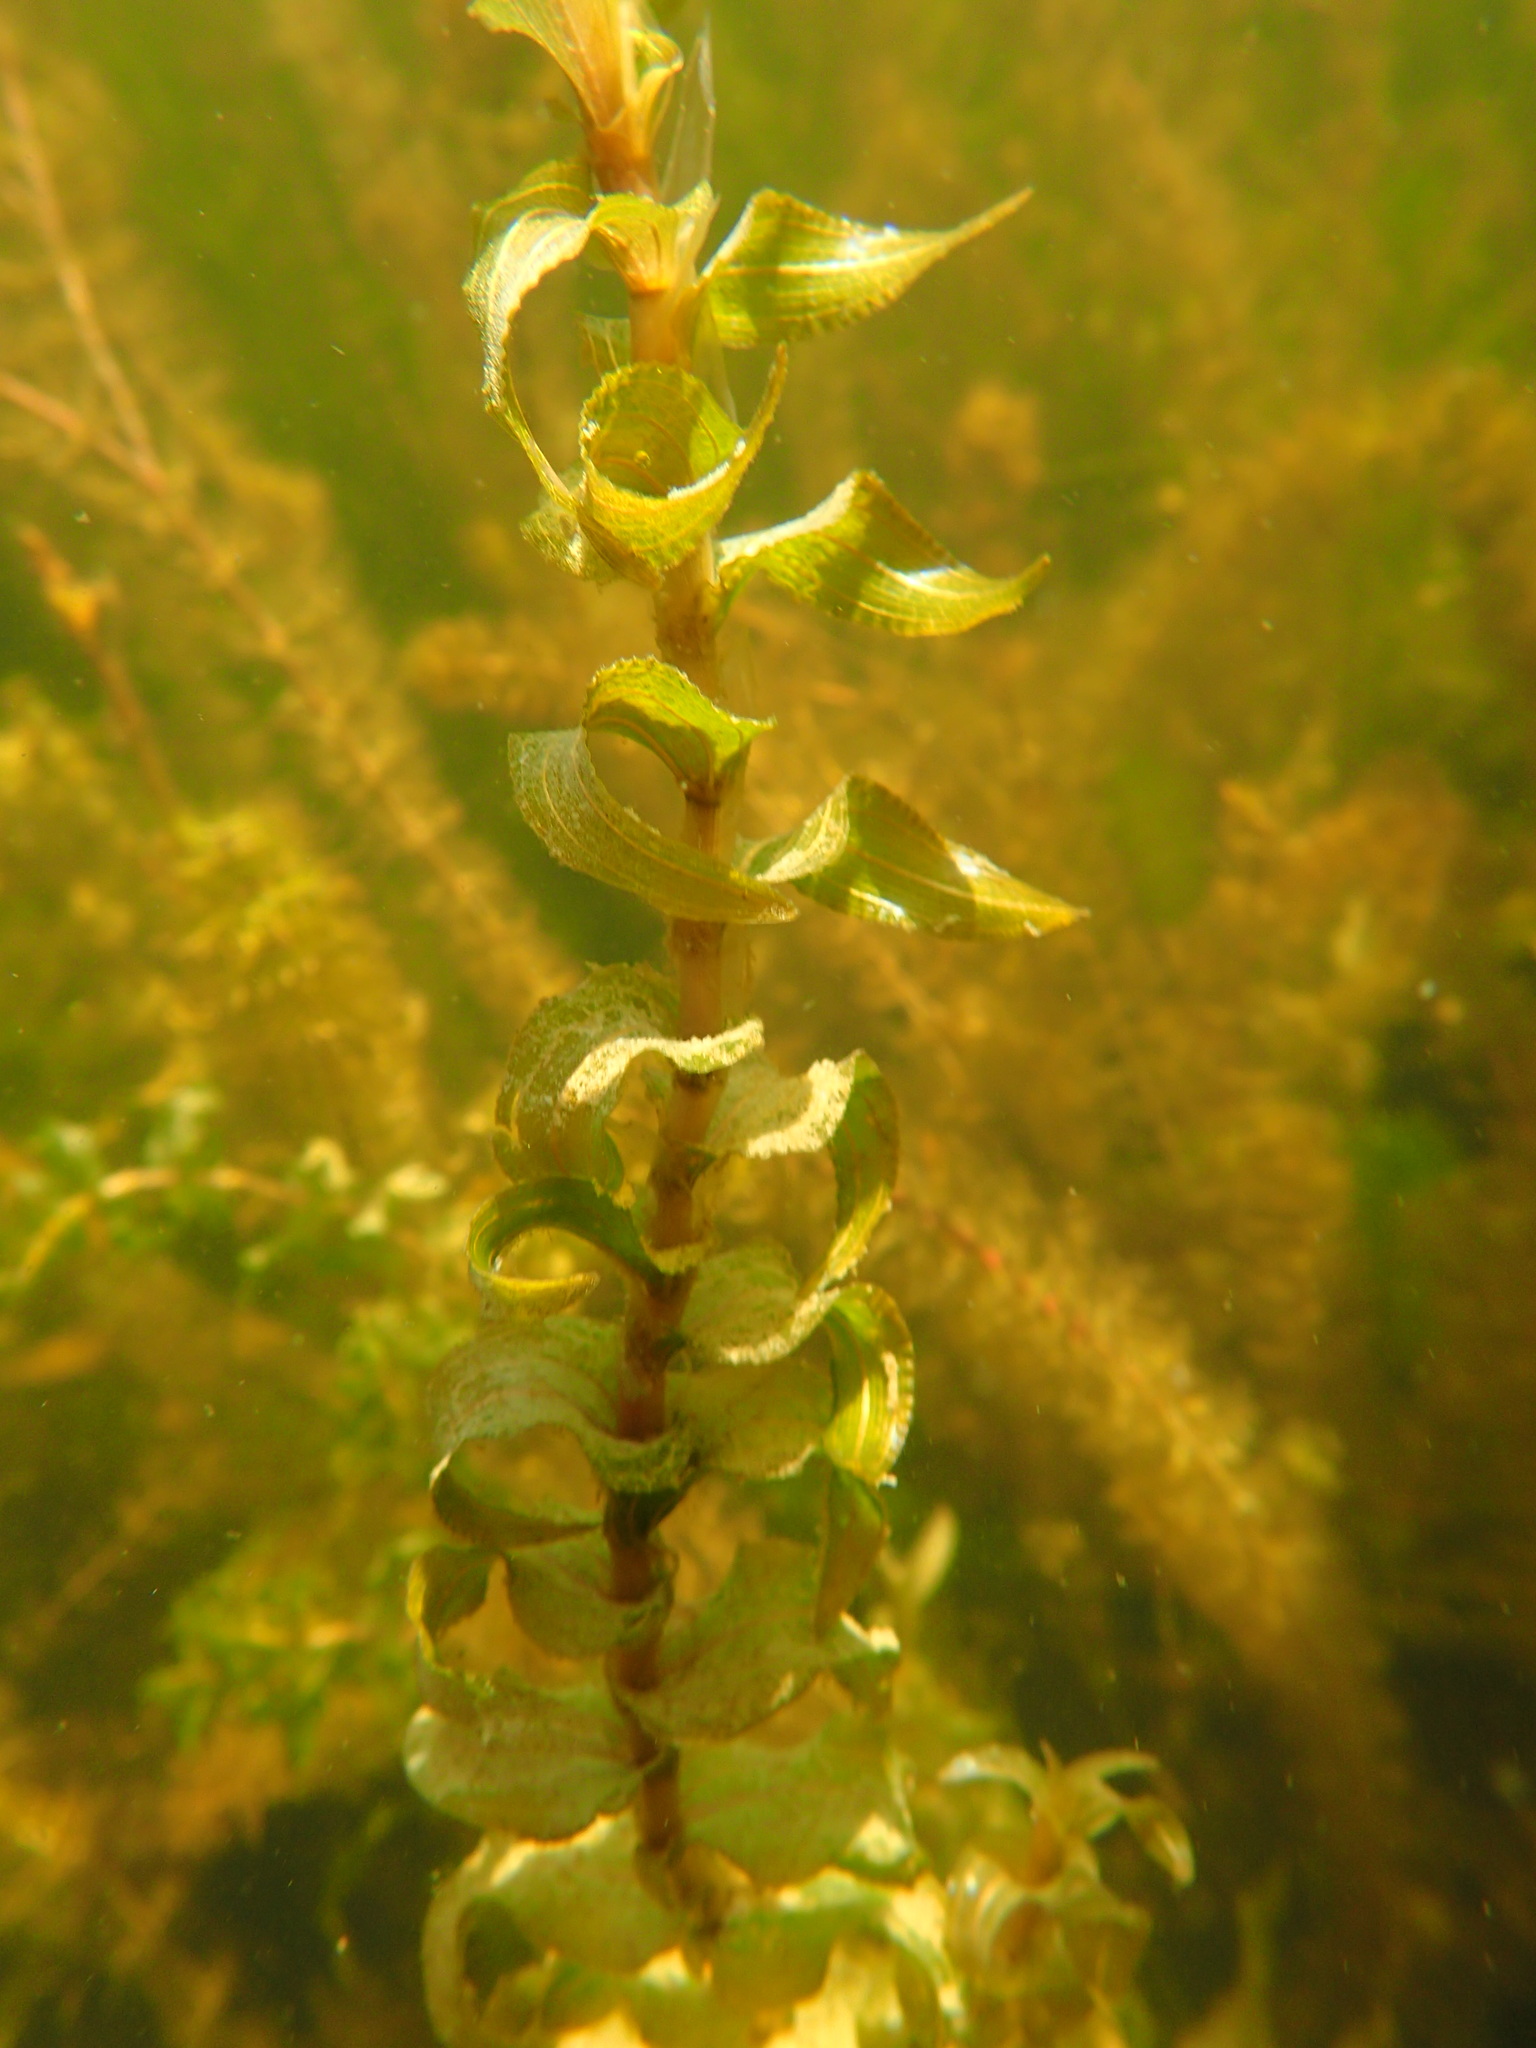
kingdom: Plantae
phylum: Tracheophyta
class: Liliopsida
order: Alismatales
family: Potamogetonaceae
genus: Potamogeton
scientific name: Potamogeton richardsonii
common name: Richardson's pondweed
